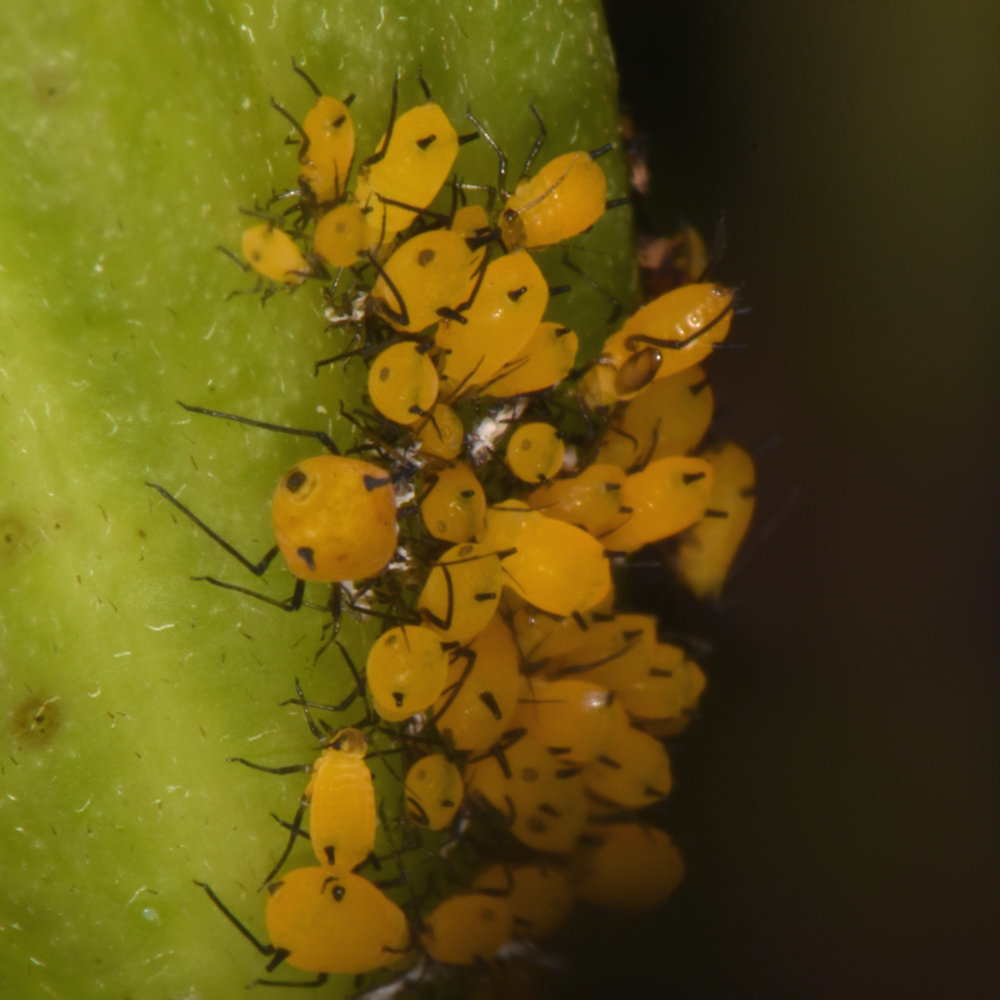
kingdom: Animalia
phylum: Arthropoda
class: Insecta
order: Hemiptera
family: Aphididae
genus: Aphis
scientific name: Aphis nerii
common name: Oleander aphid
